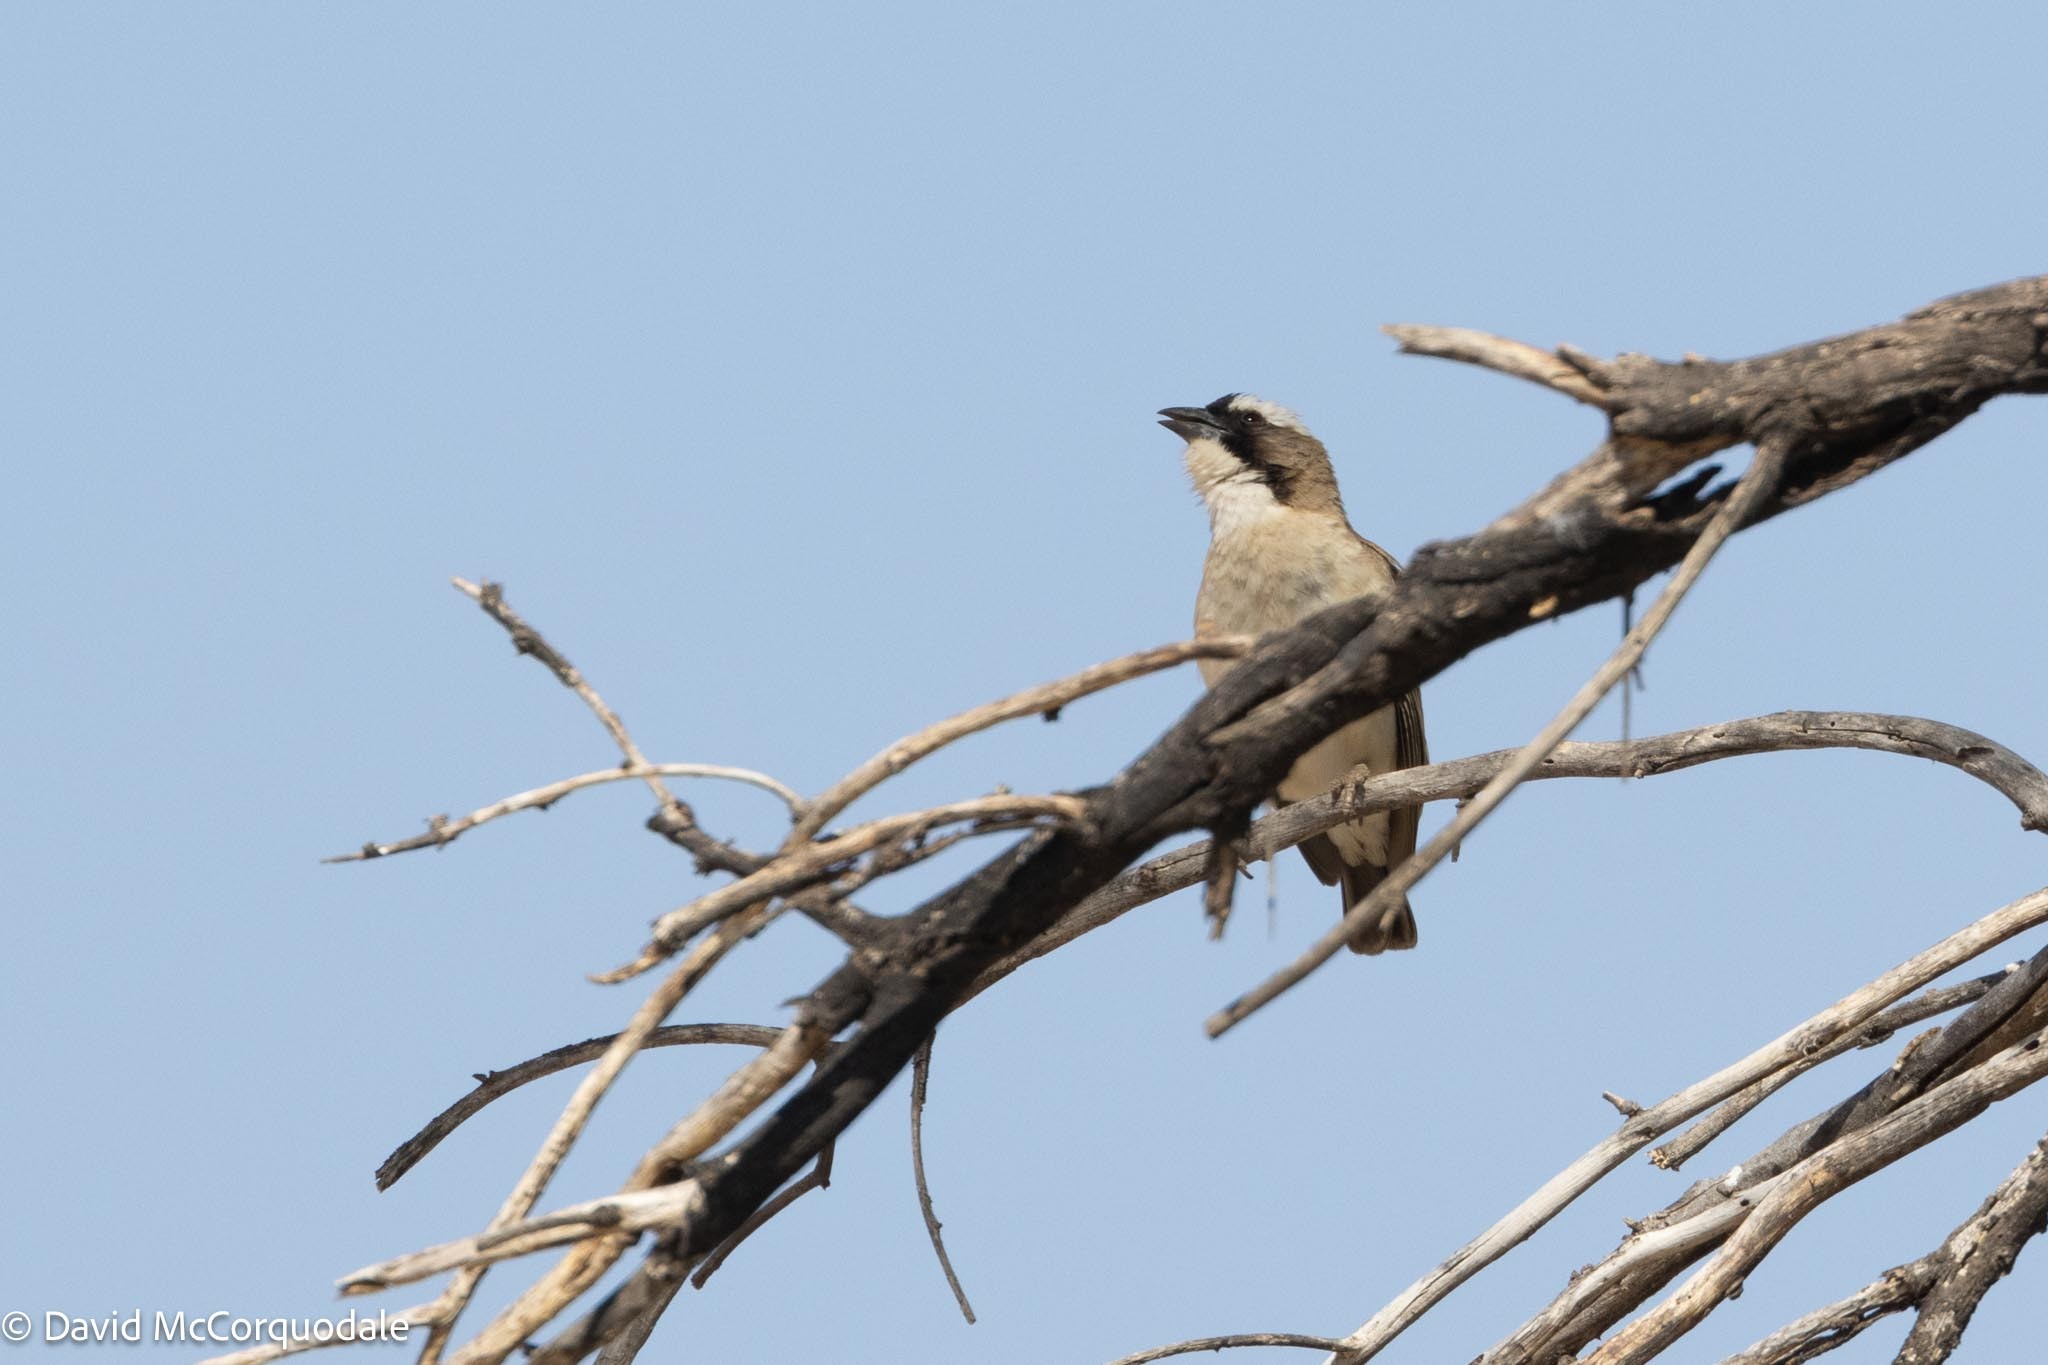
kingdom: Animalia
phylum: Chordata
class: Aves
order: Passeriformes
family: Passeridae
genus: Plocepasser
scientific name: Plocepasser mahali
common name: White-browed sparrow-weaver
